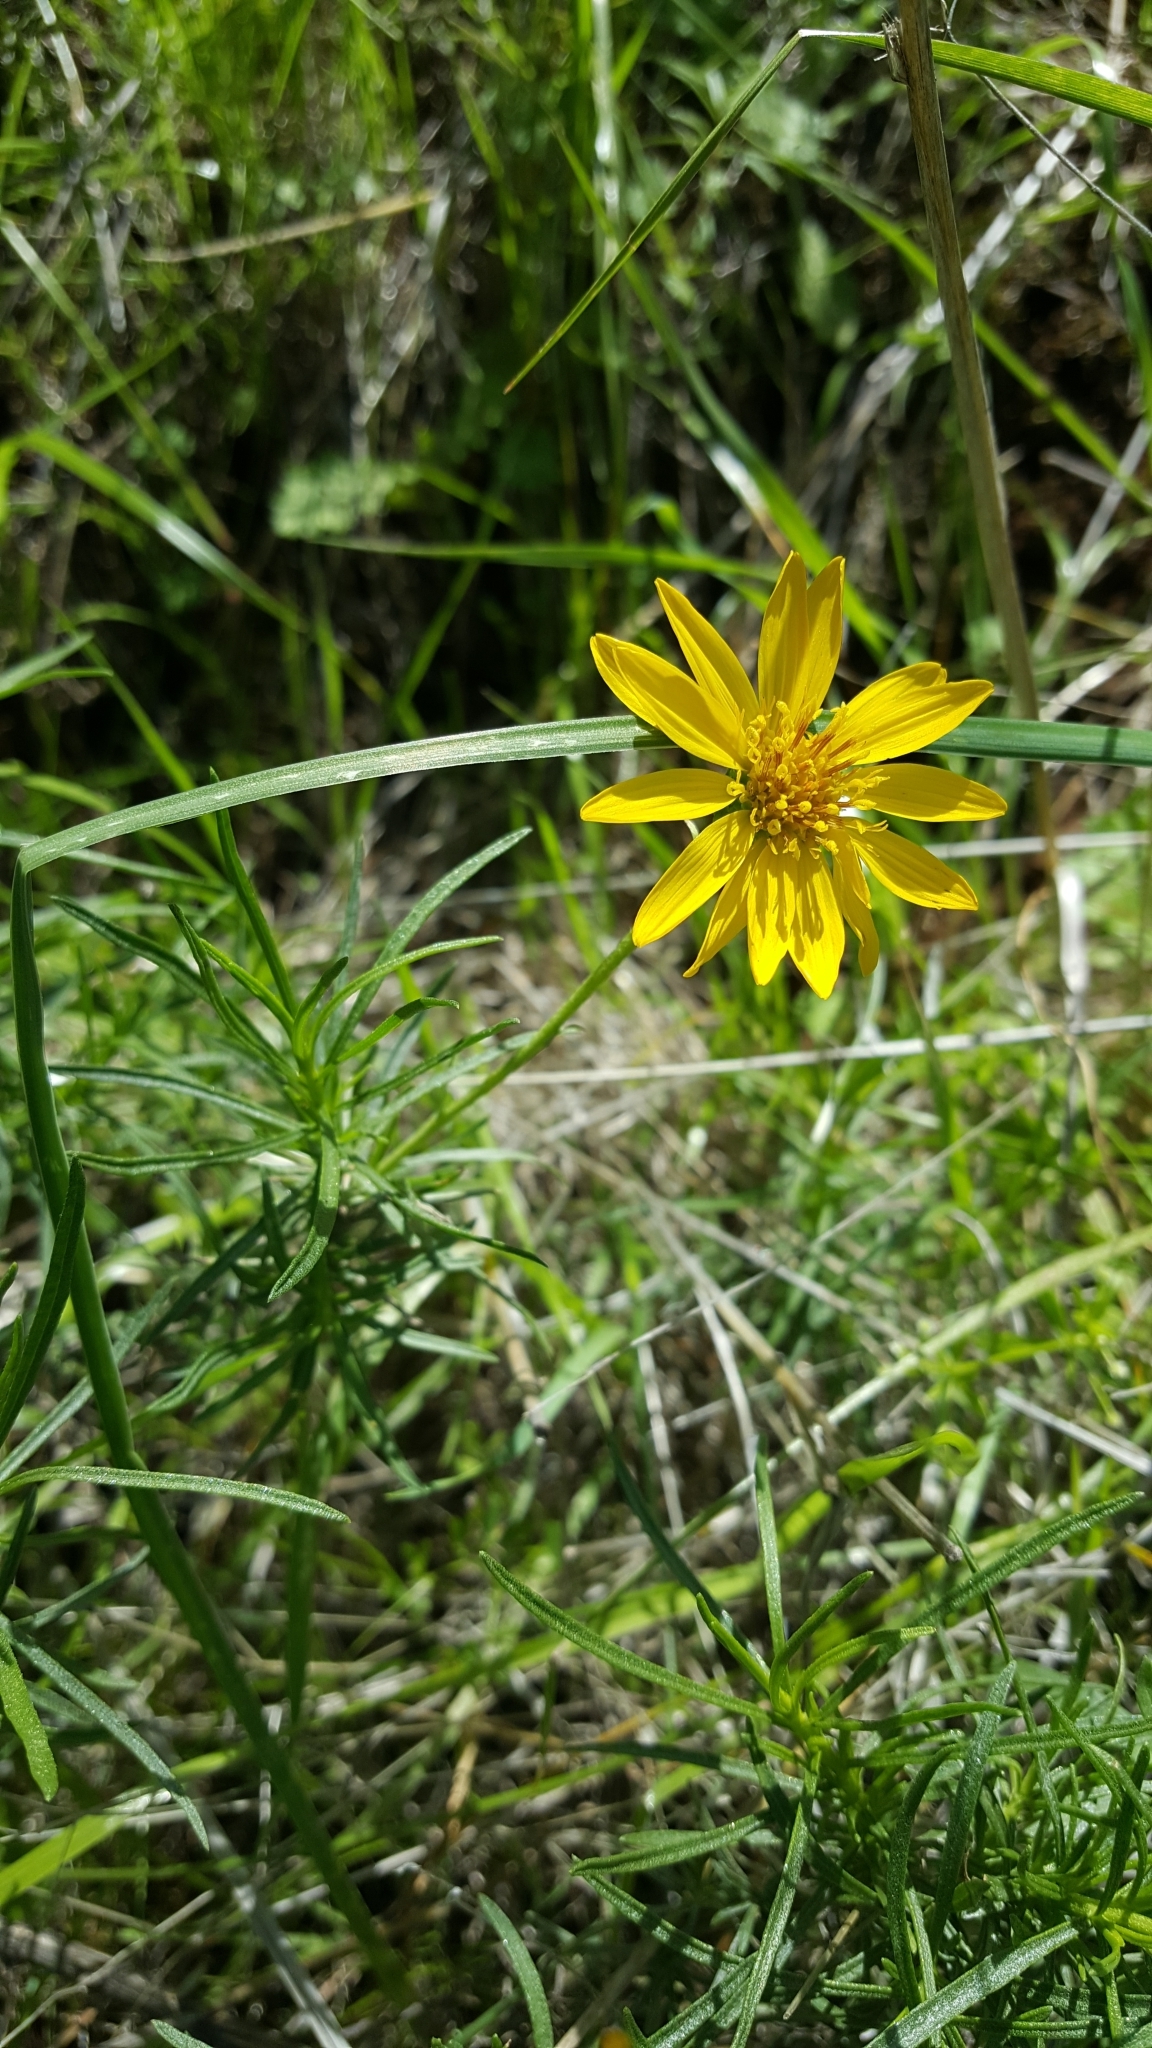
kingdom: Plantae
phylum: Tracheophyta
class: Magnoliopsida
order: Asterales
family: Asteraceae
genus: Ericameria
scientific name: Ericameria linearifolia
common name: Interior goldenbush
